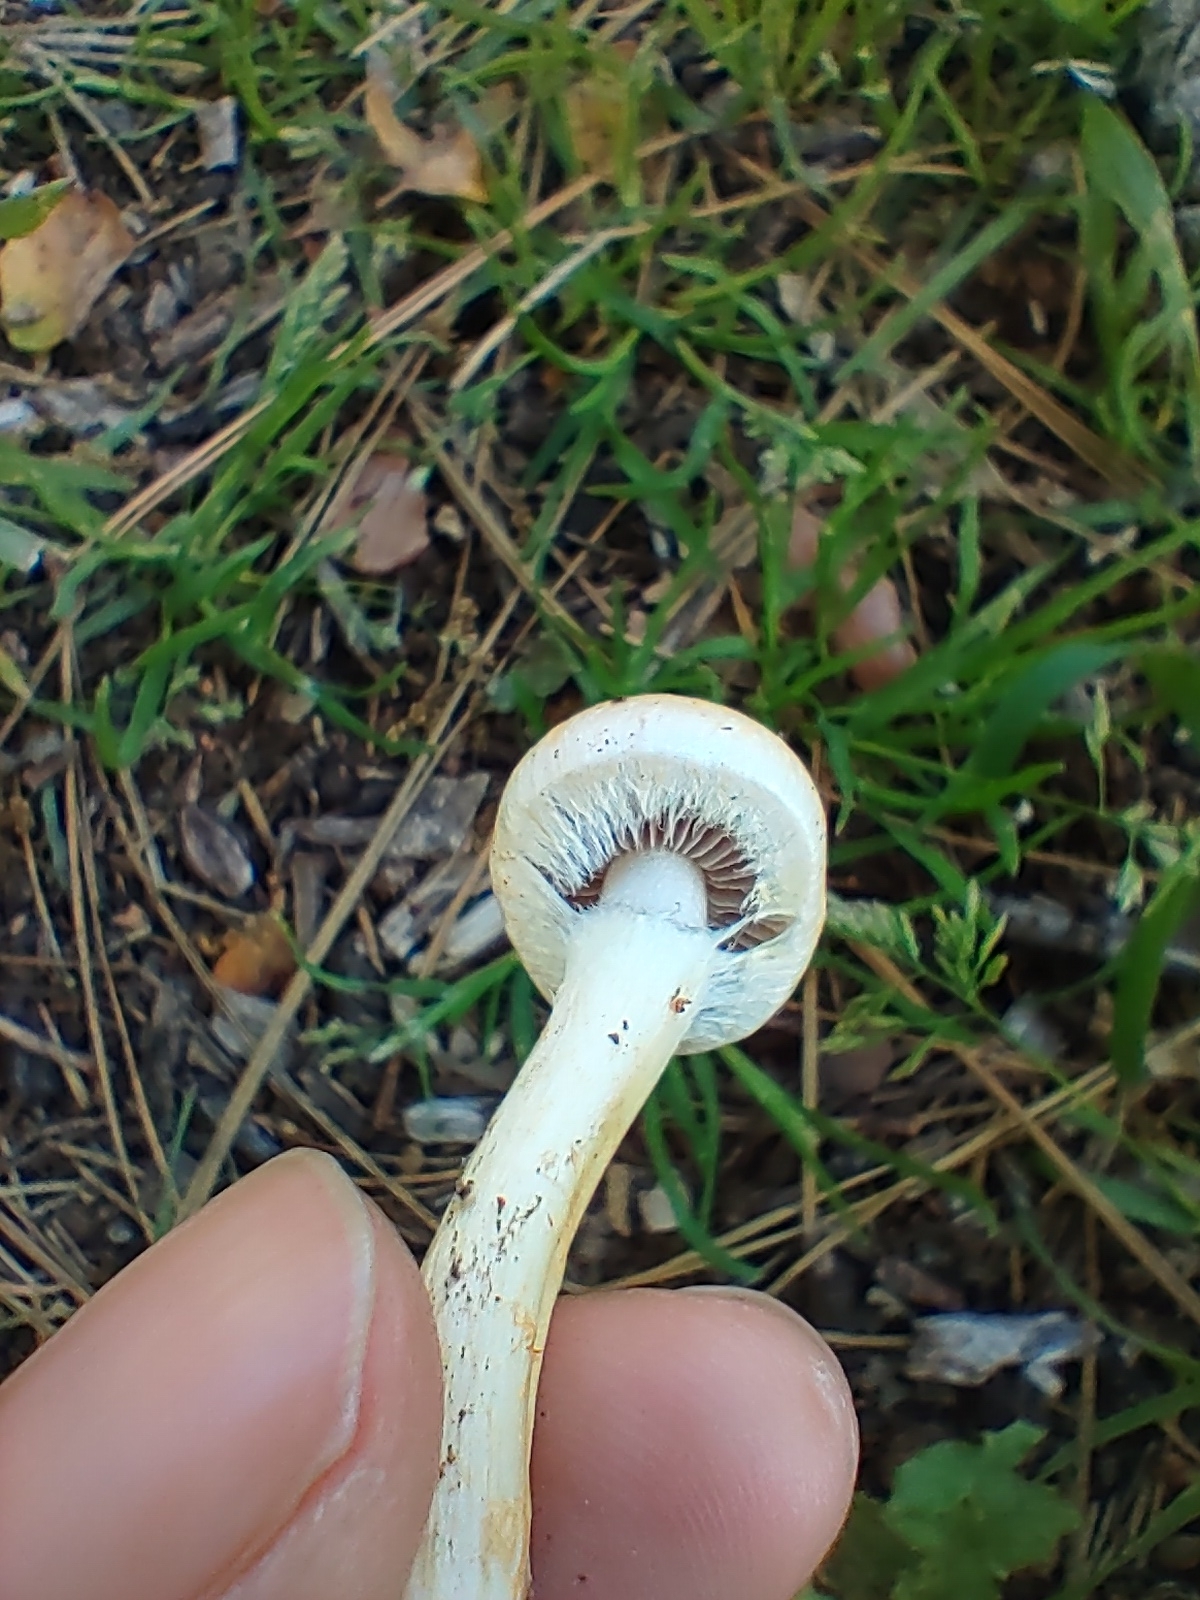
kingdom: Fungi
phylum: Basidiomycota
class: Agaricomycetes
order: Agaricales
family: Strophariaceae
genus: Leratiomyces
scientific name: Leratiomyces percevalii
